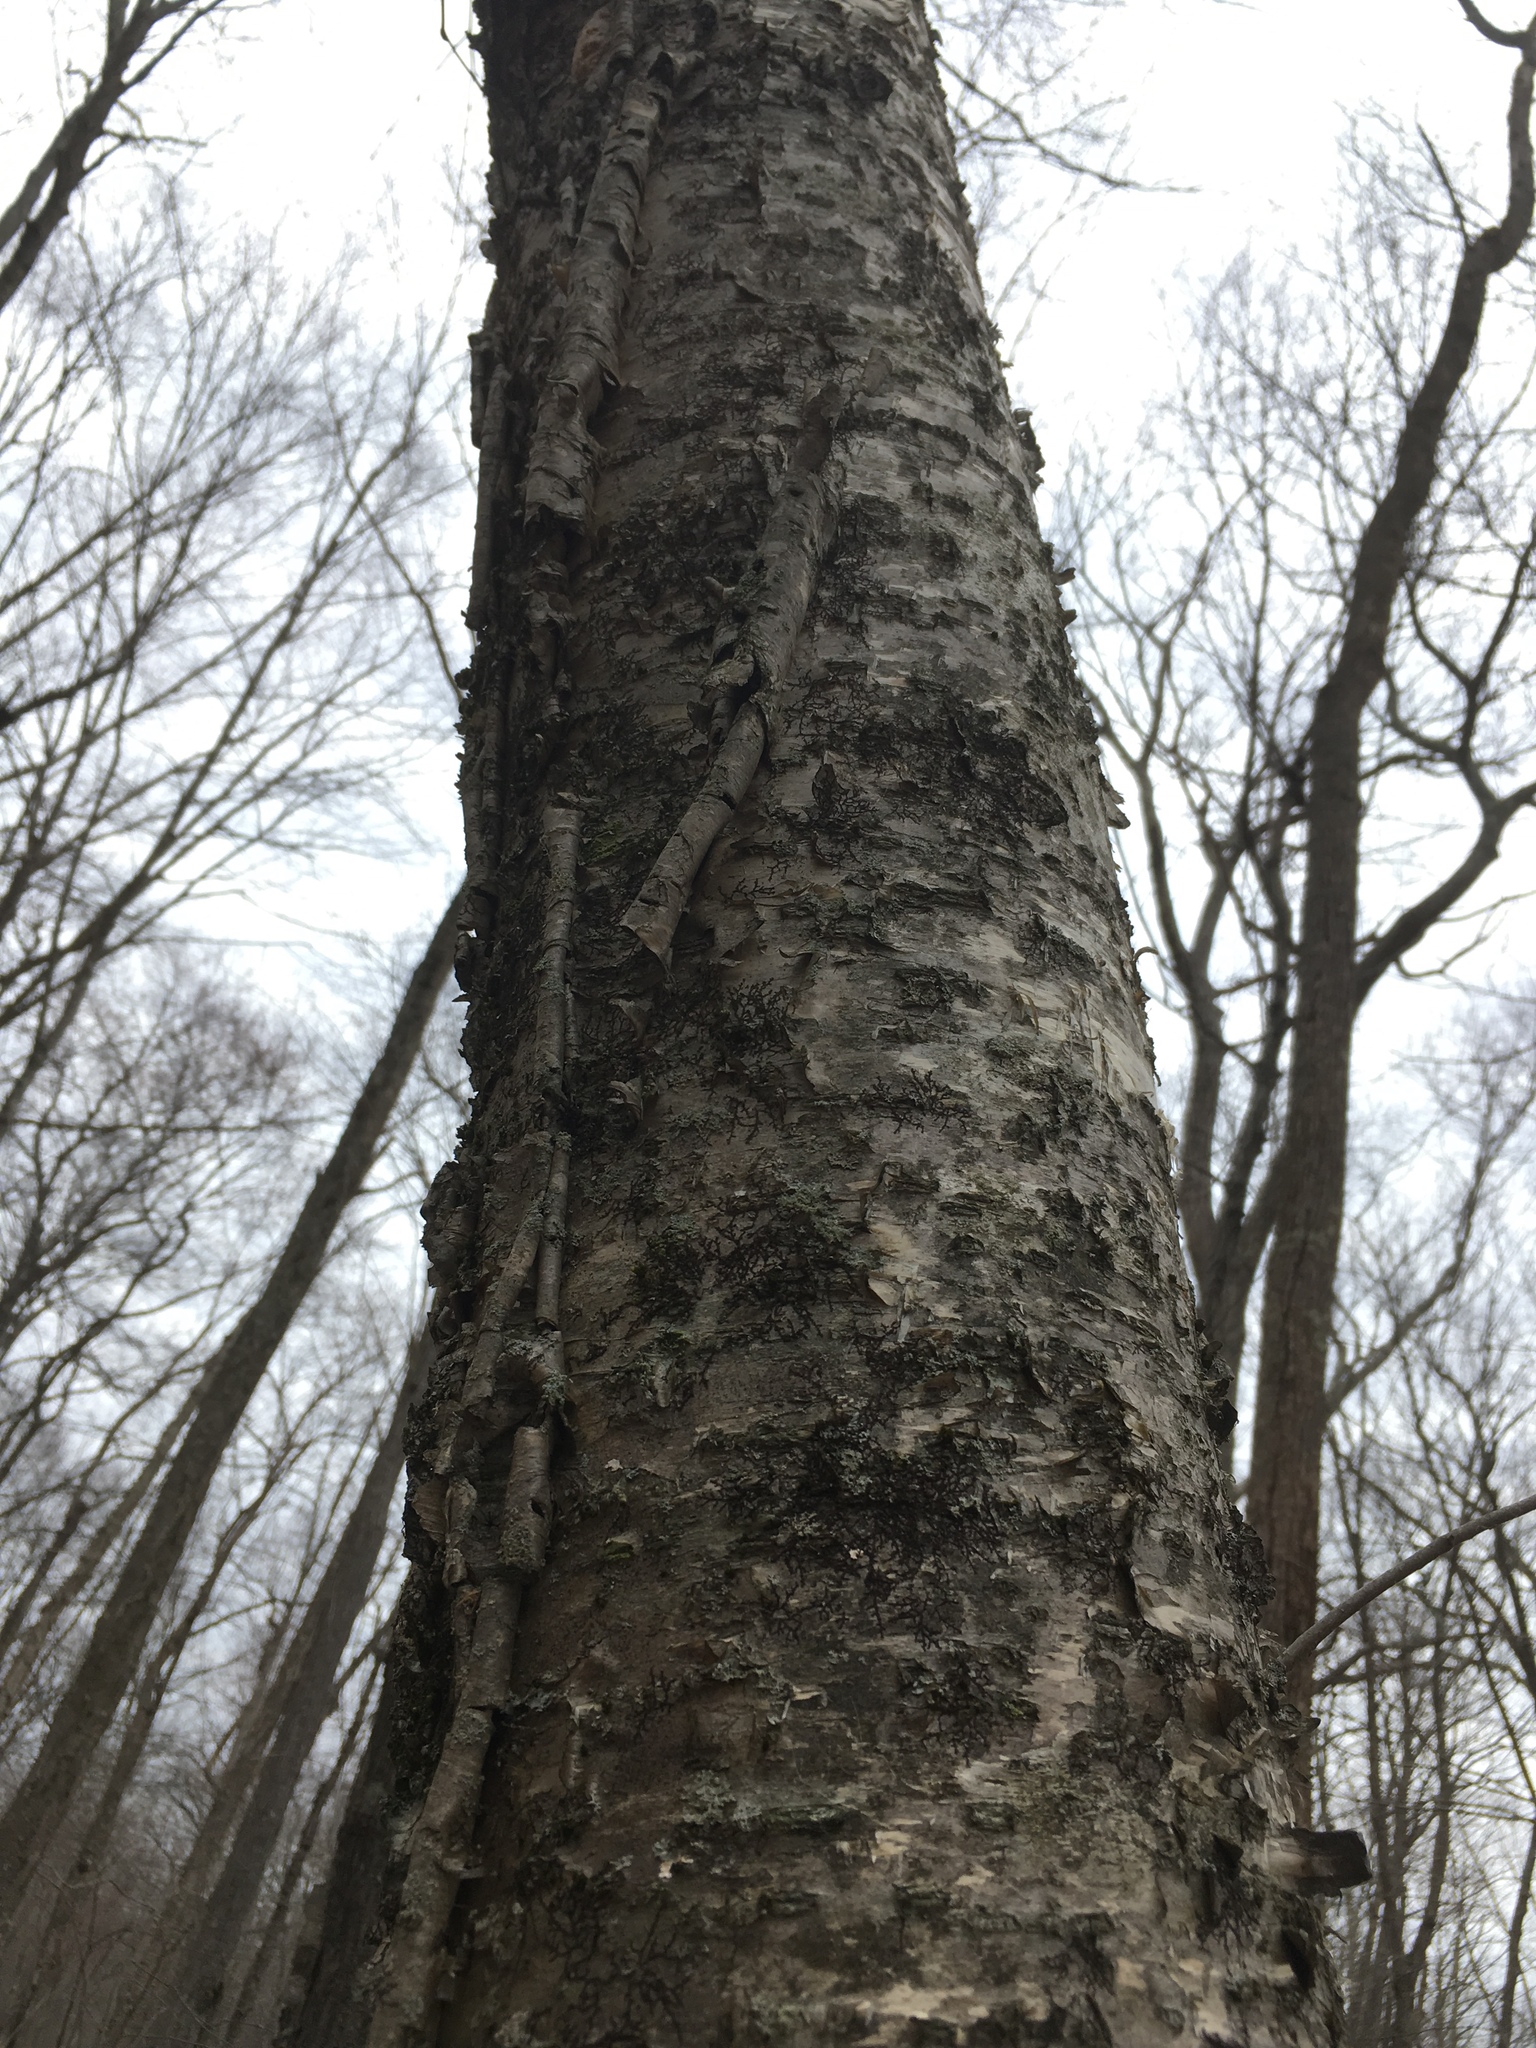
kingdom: Plantae
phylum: Tracheophyta
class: Magnoliopsida
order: Fagales
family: Betulaceae
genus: Betula
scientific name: Betula alleghaniensis
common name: Yellow birch
